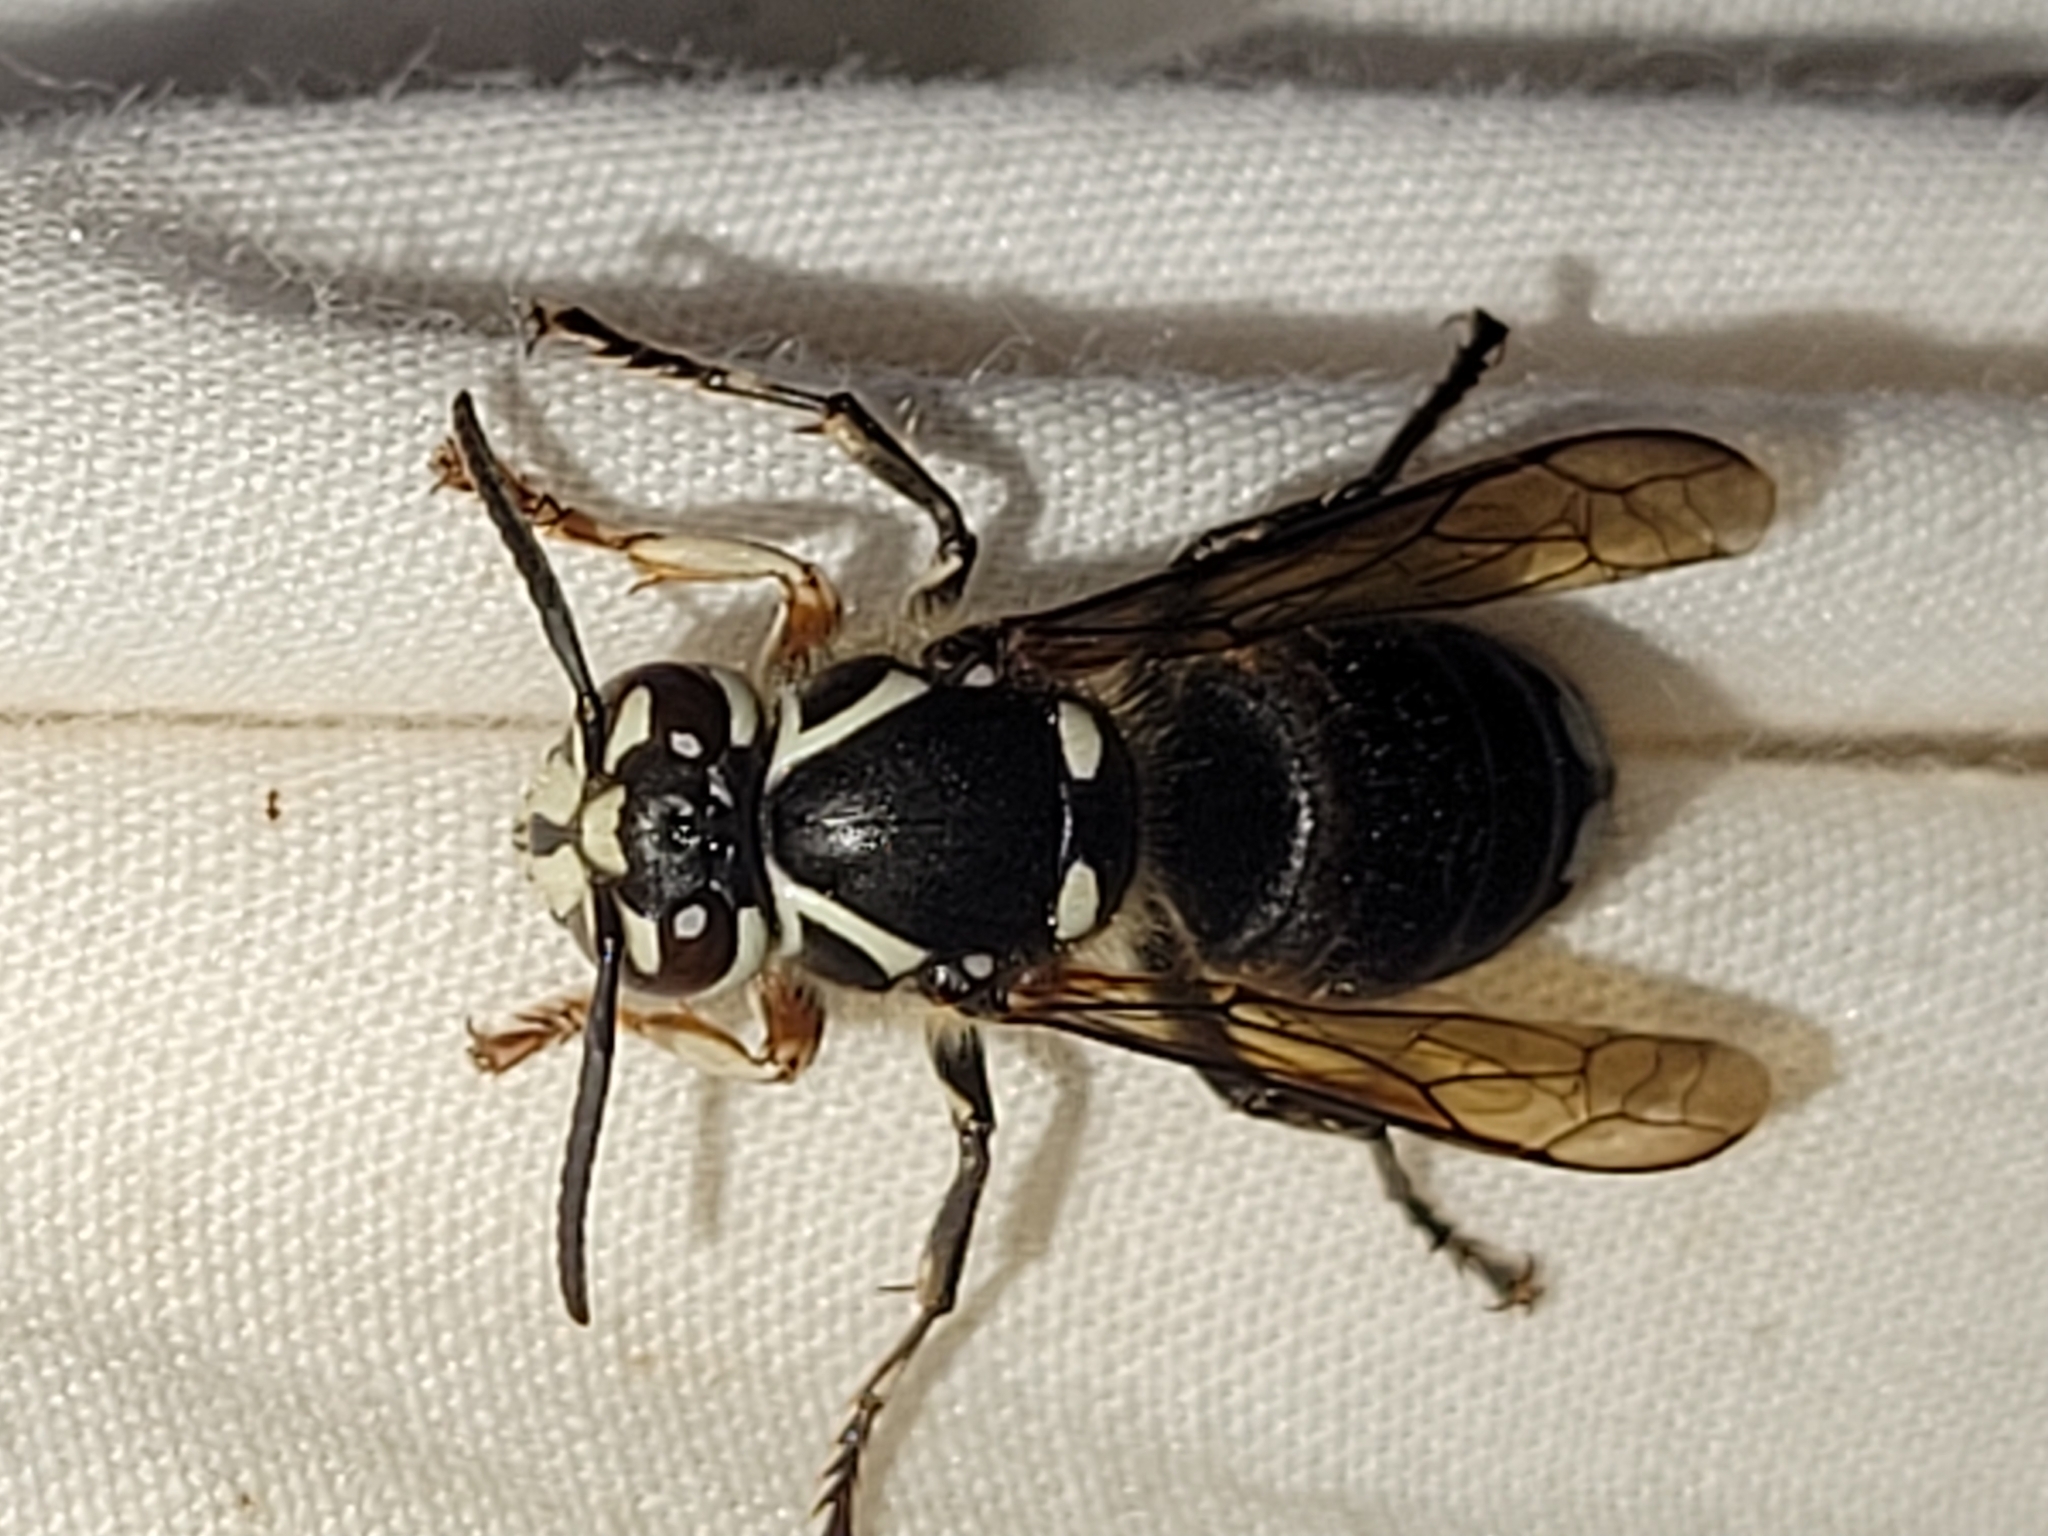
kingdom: Animalia
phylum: Arthropoda
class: Insecta
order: Hymenoptera
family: Vespidae
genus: Dolichovespula
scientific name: Dolichovespula maculata
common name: Bald-faced hornet
